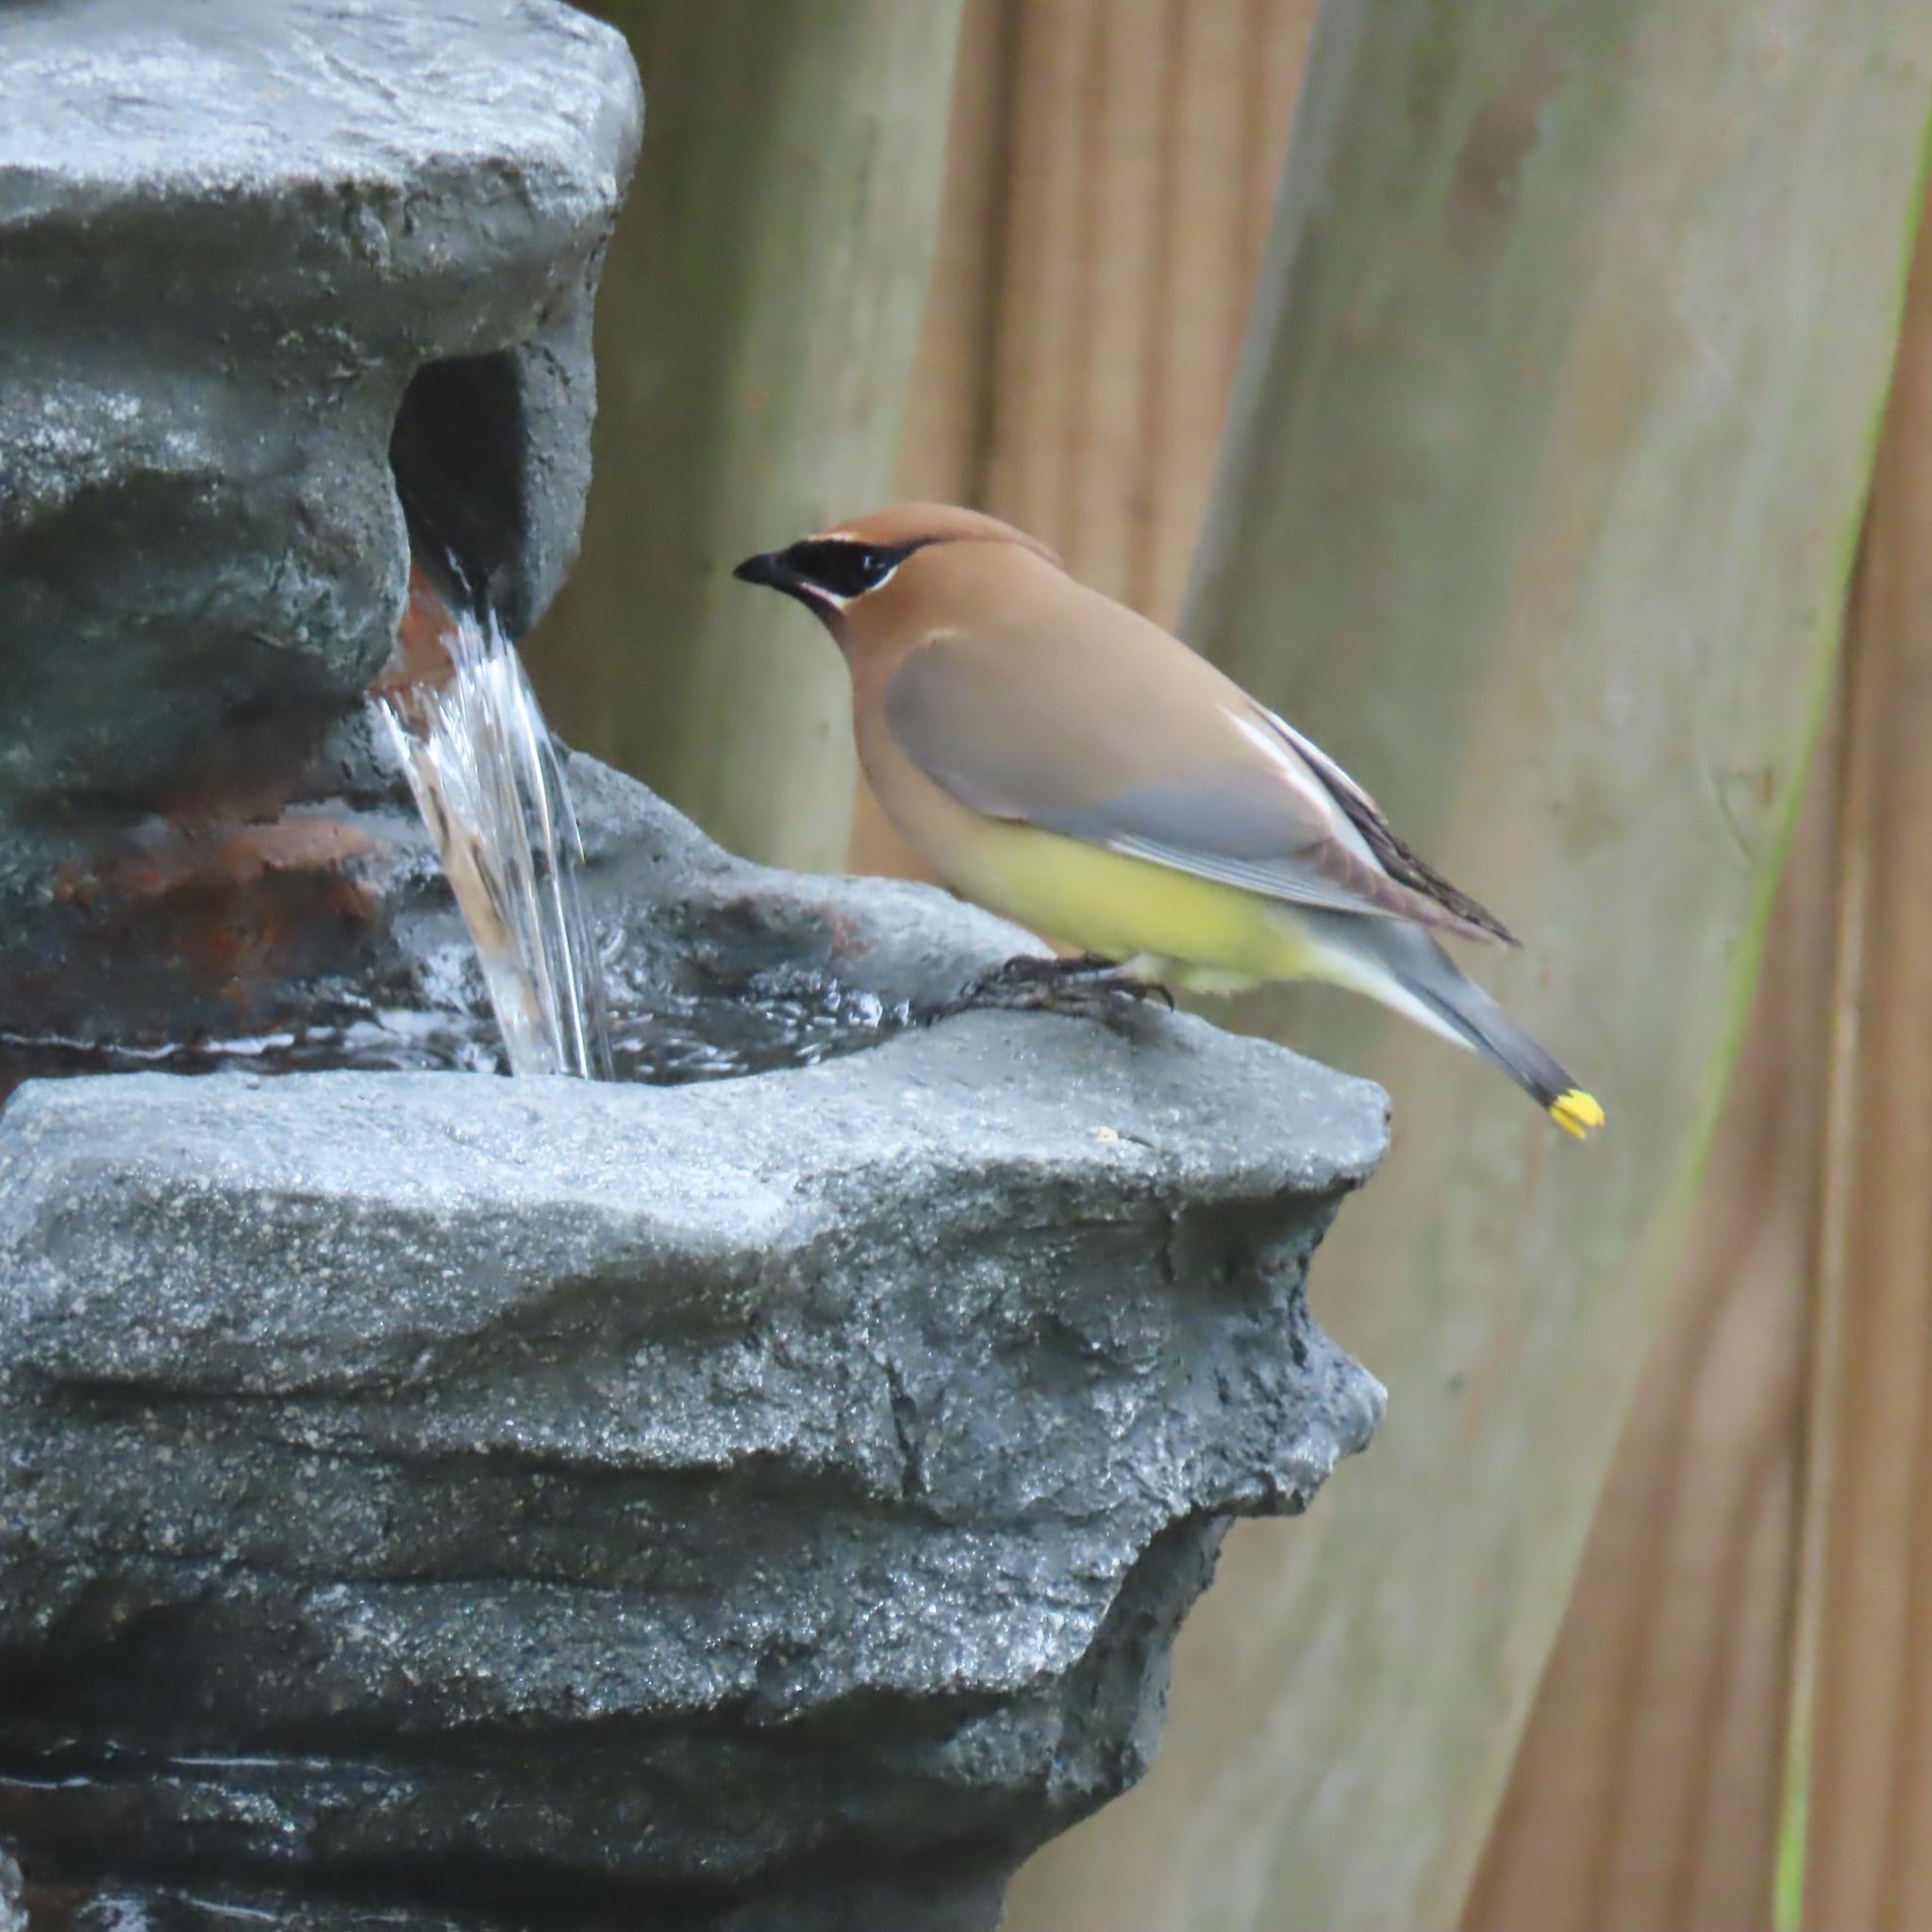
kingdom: Animalia
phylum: Chordata
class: Aves
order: Passeriformes
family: Bombycillidae
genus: Bombycilla
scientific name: Bombycilla cedrorum
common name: Cedar waxwing
